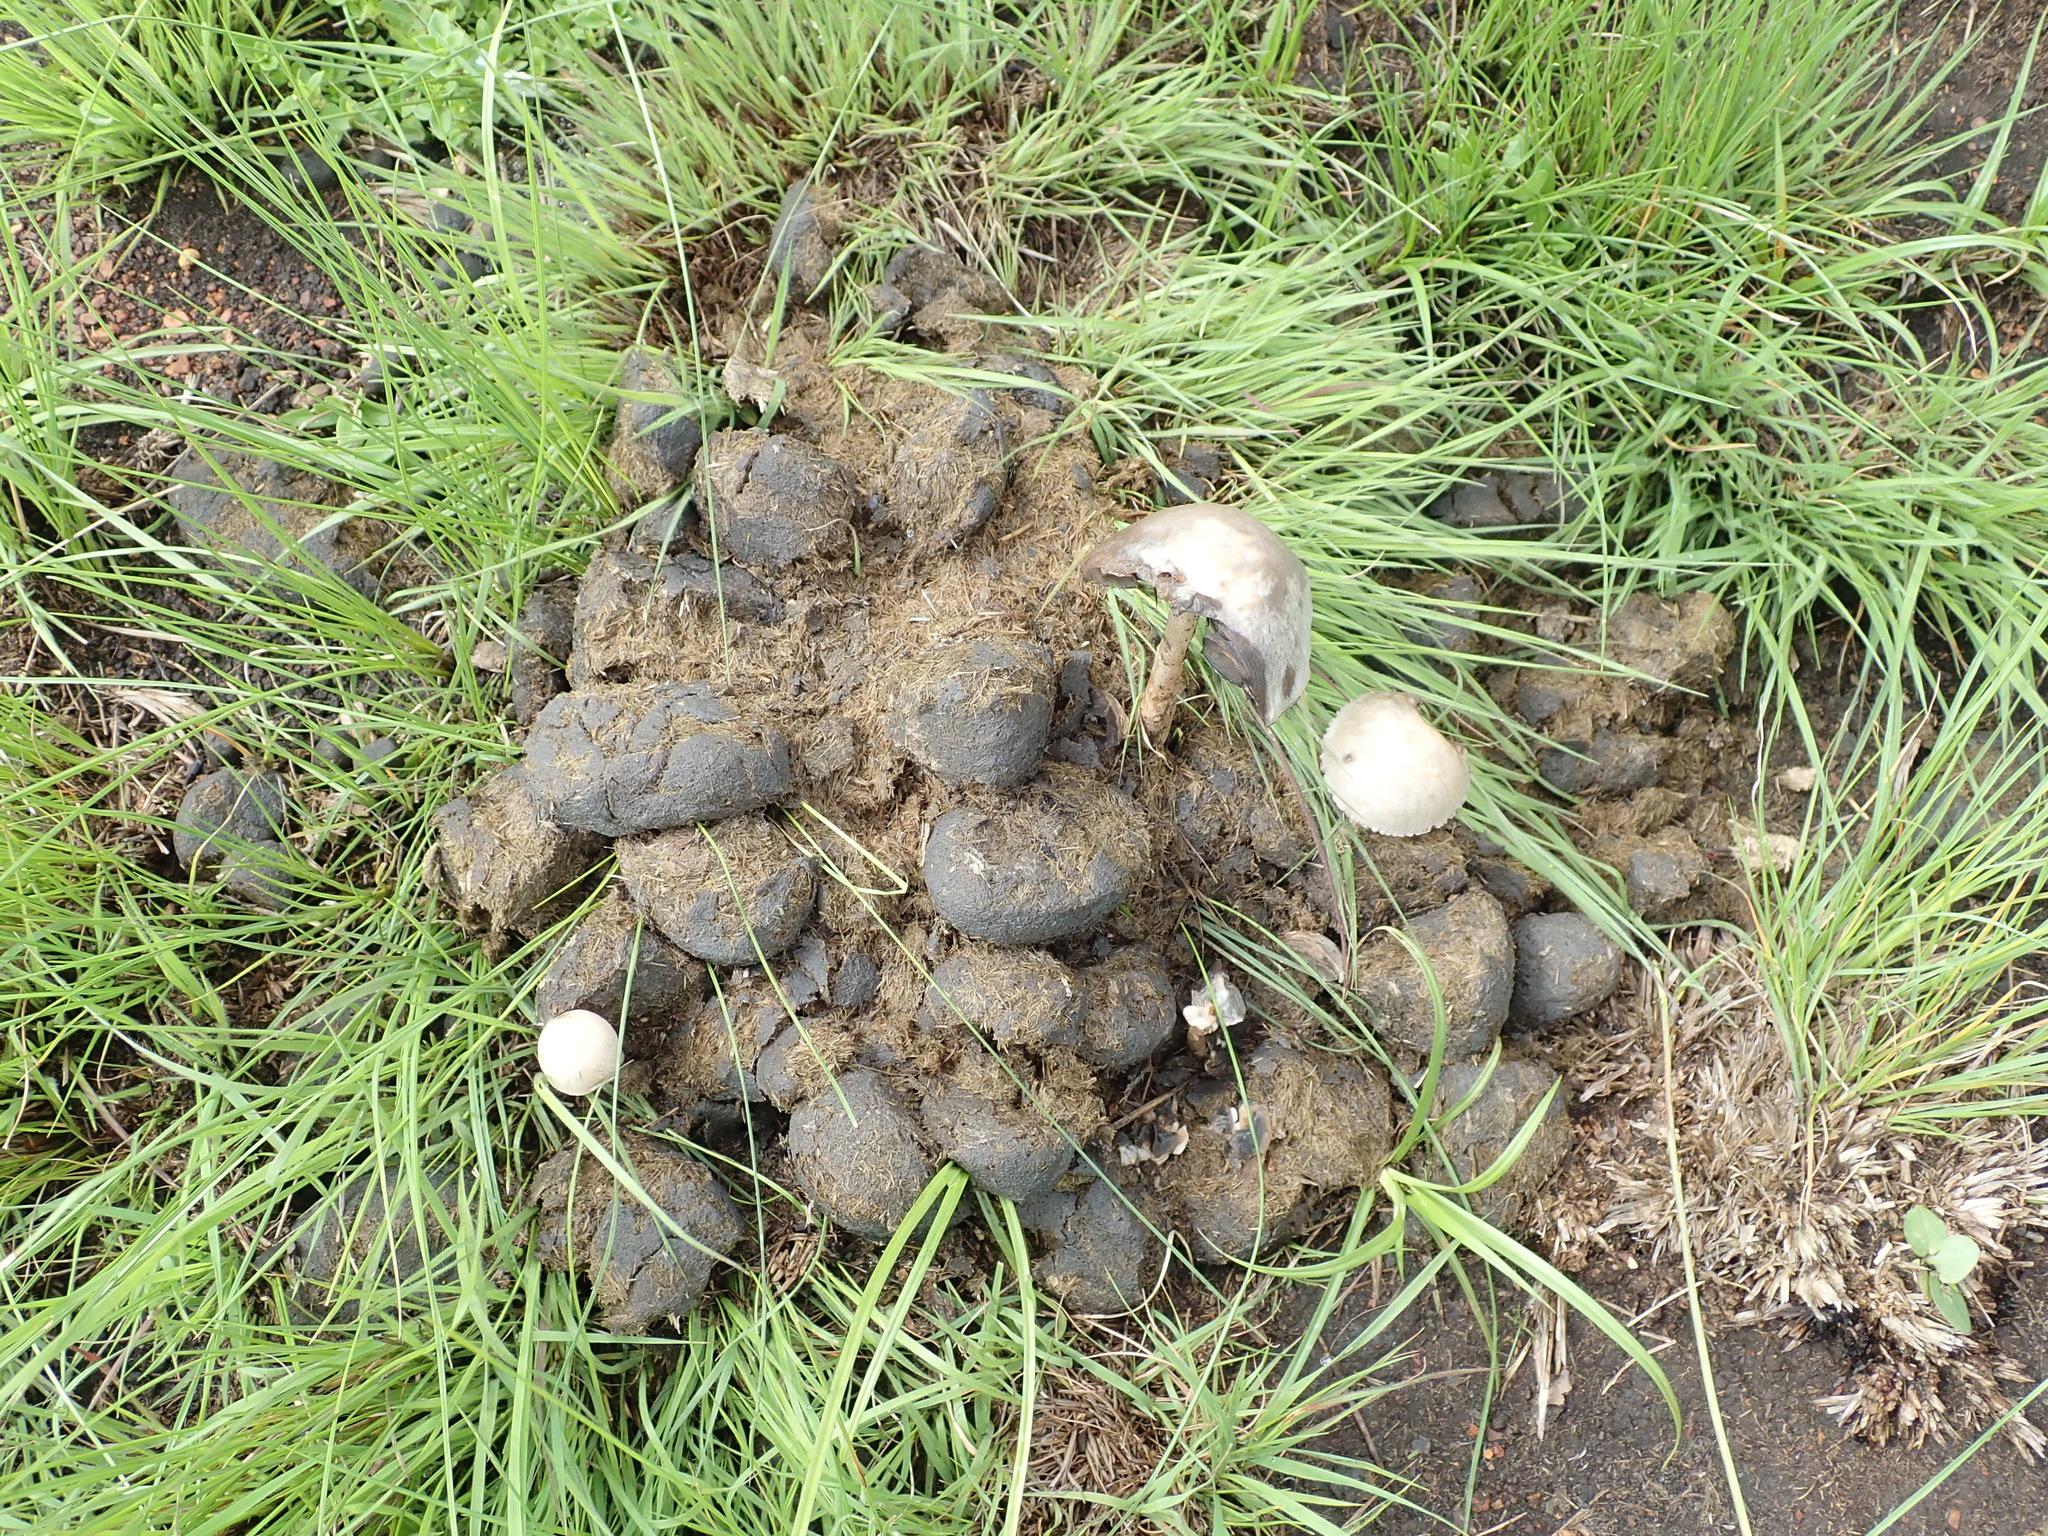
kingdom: Fungi
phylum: Basidiomycota
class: Agaricomycetes
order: Agaricales
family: Bolbitiaceae
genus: Panaeolus
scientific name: Panaeolus antillarum
